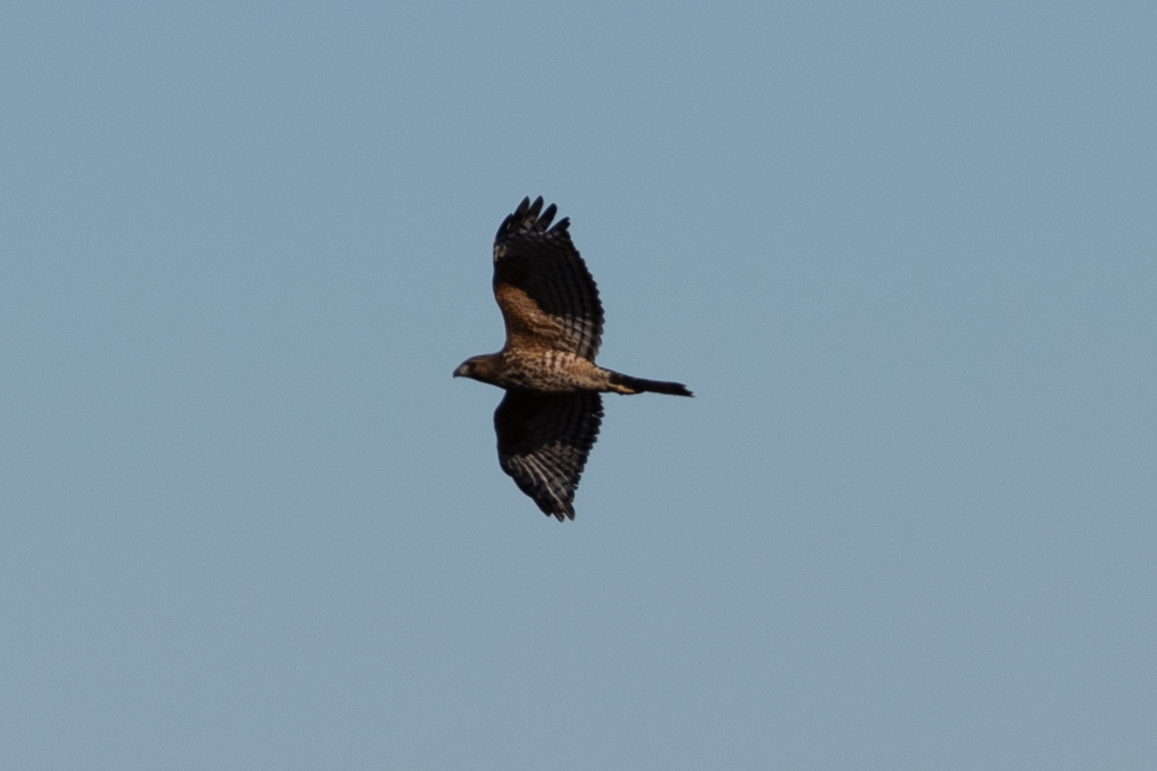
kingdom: Animalia
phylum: Chordata
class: Aves
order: Accipitriformes
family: Accipitridae
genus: Buteo
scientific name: Buteo lineatus
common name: Red-shouldered hawk
